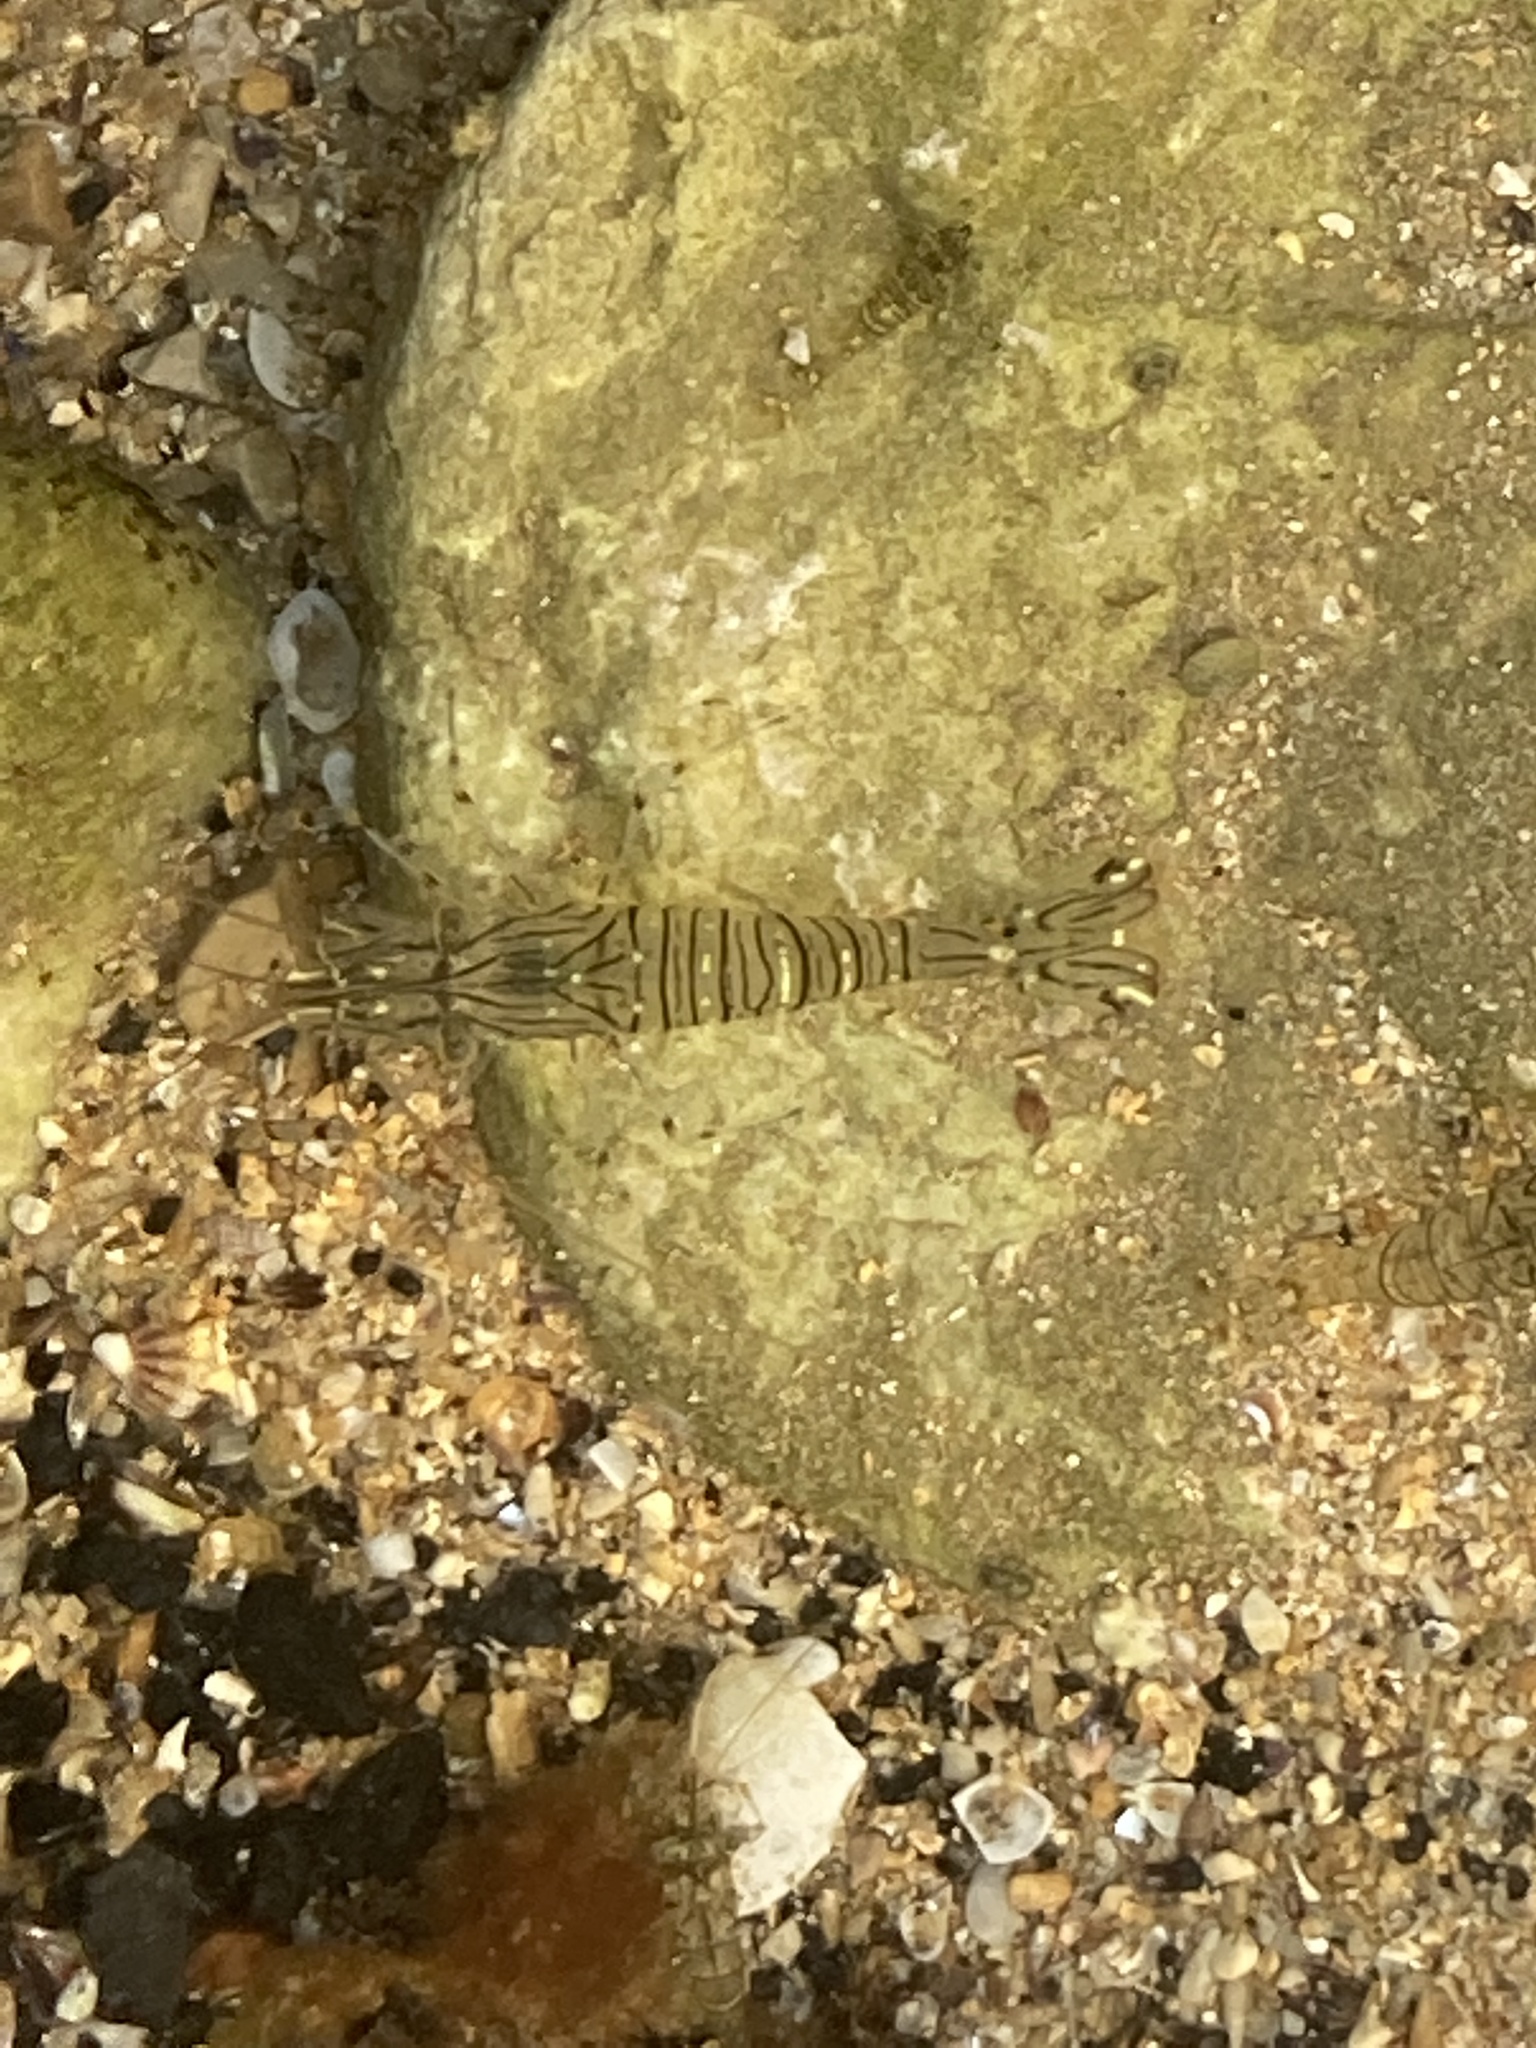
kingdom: Animalia
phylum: Arthropoda
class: Malacostraca
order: Decapoda
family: Palaemonidae
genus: Palaemon
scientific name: Palaemon serratus
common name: Common prawn
